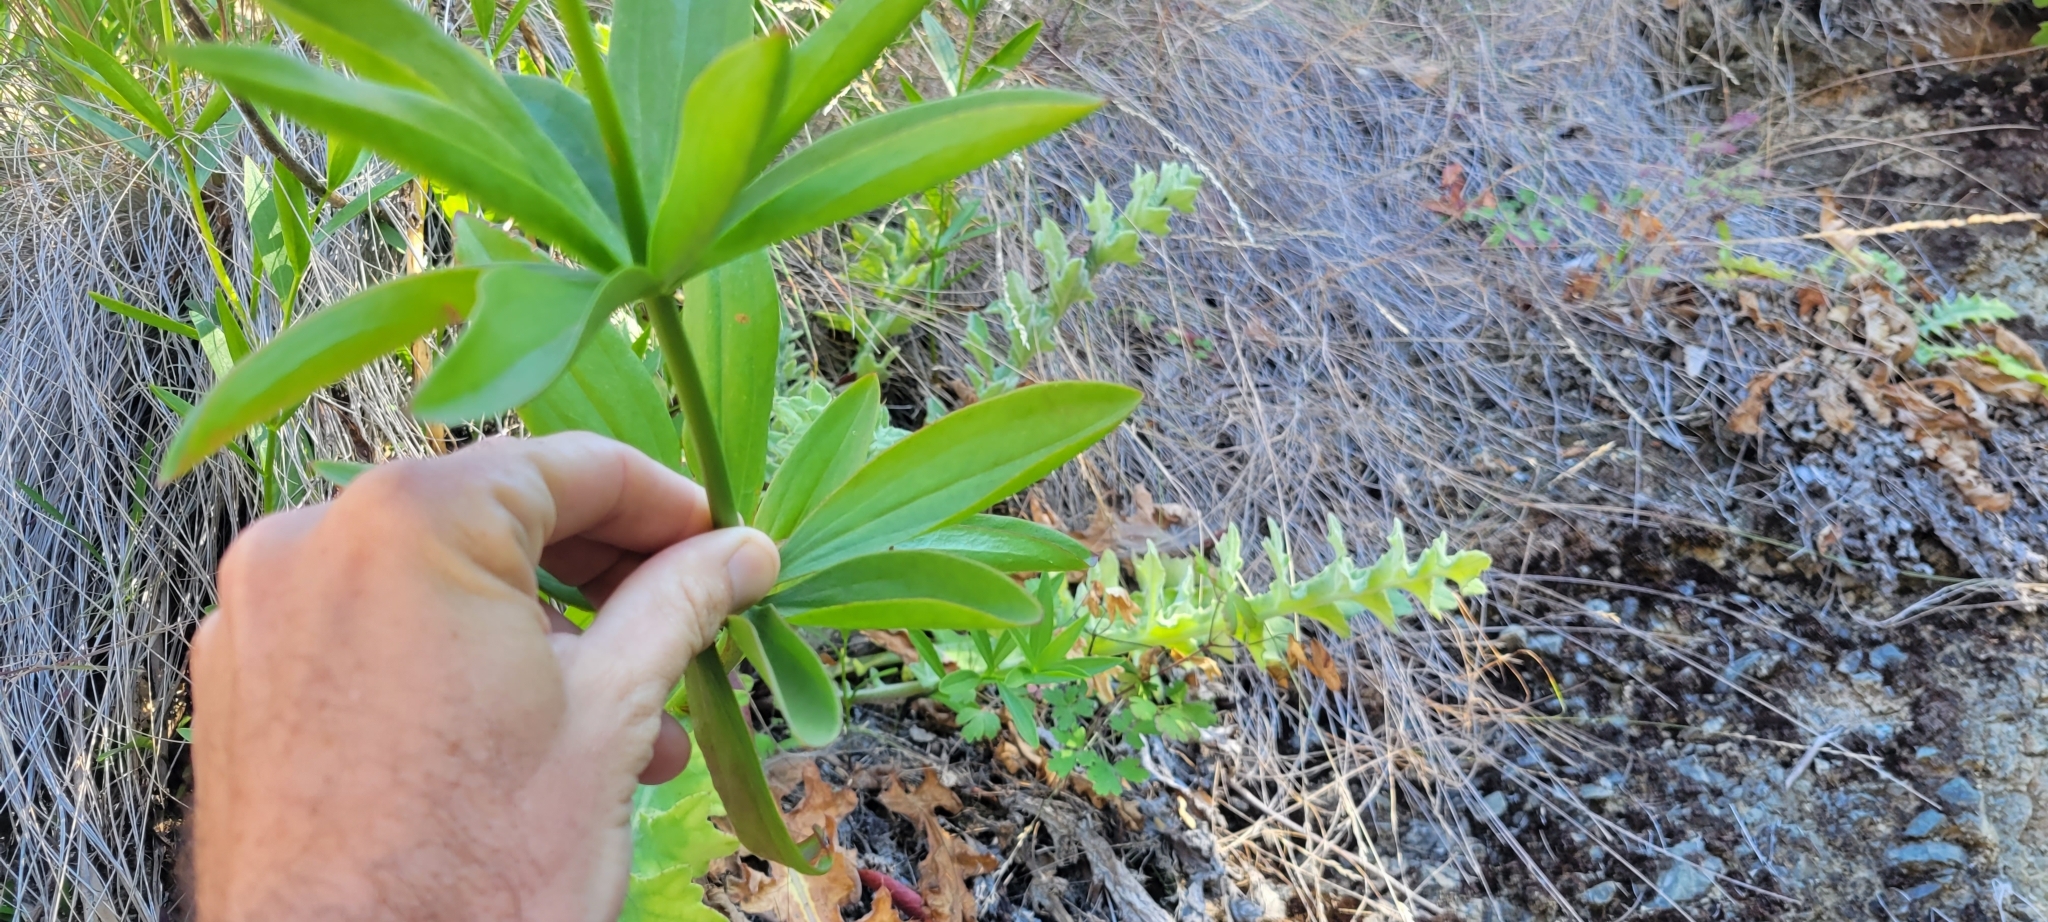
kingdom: Plantae
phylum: Tracheophyta
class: Liliopsida
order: Liliales
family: Liliaceae
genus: Lilium
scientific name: Lilium pardalinum
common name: Panther lily
